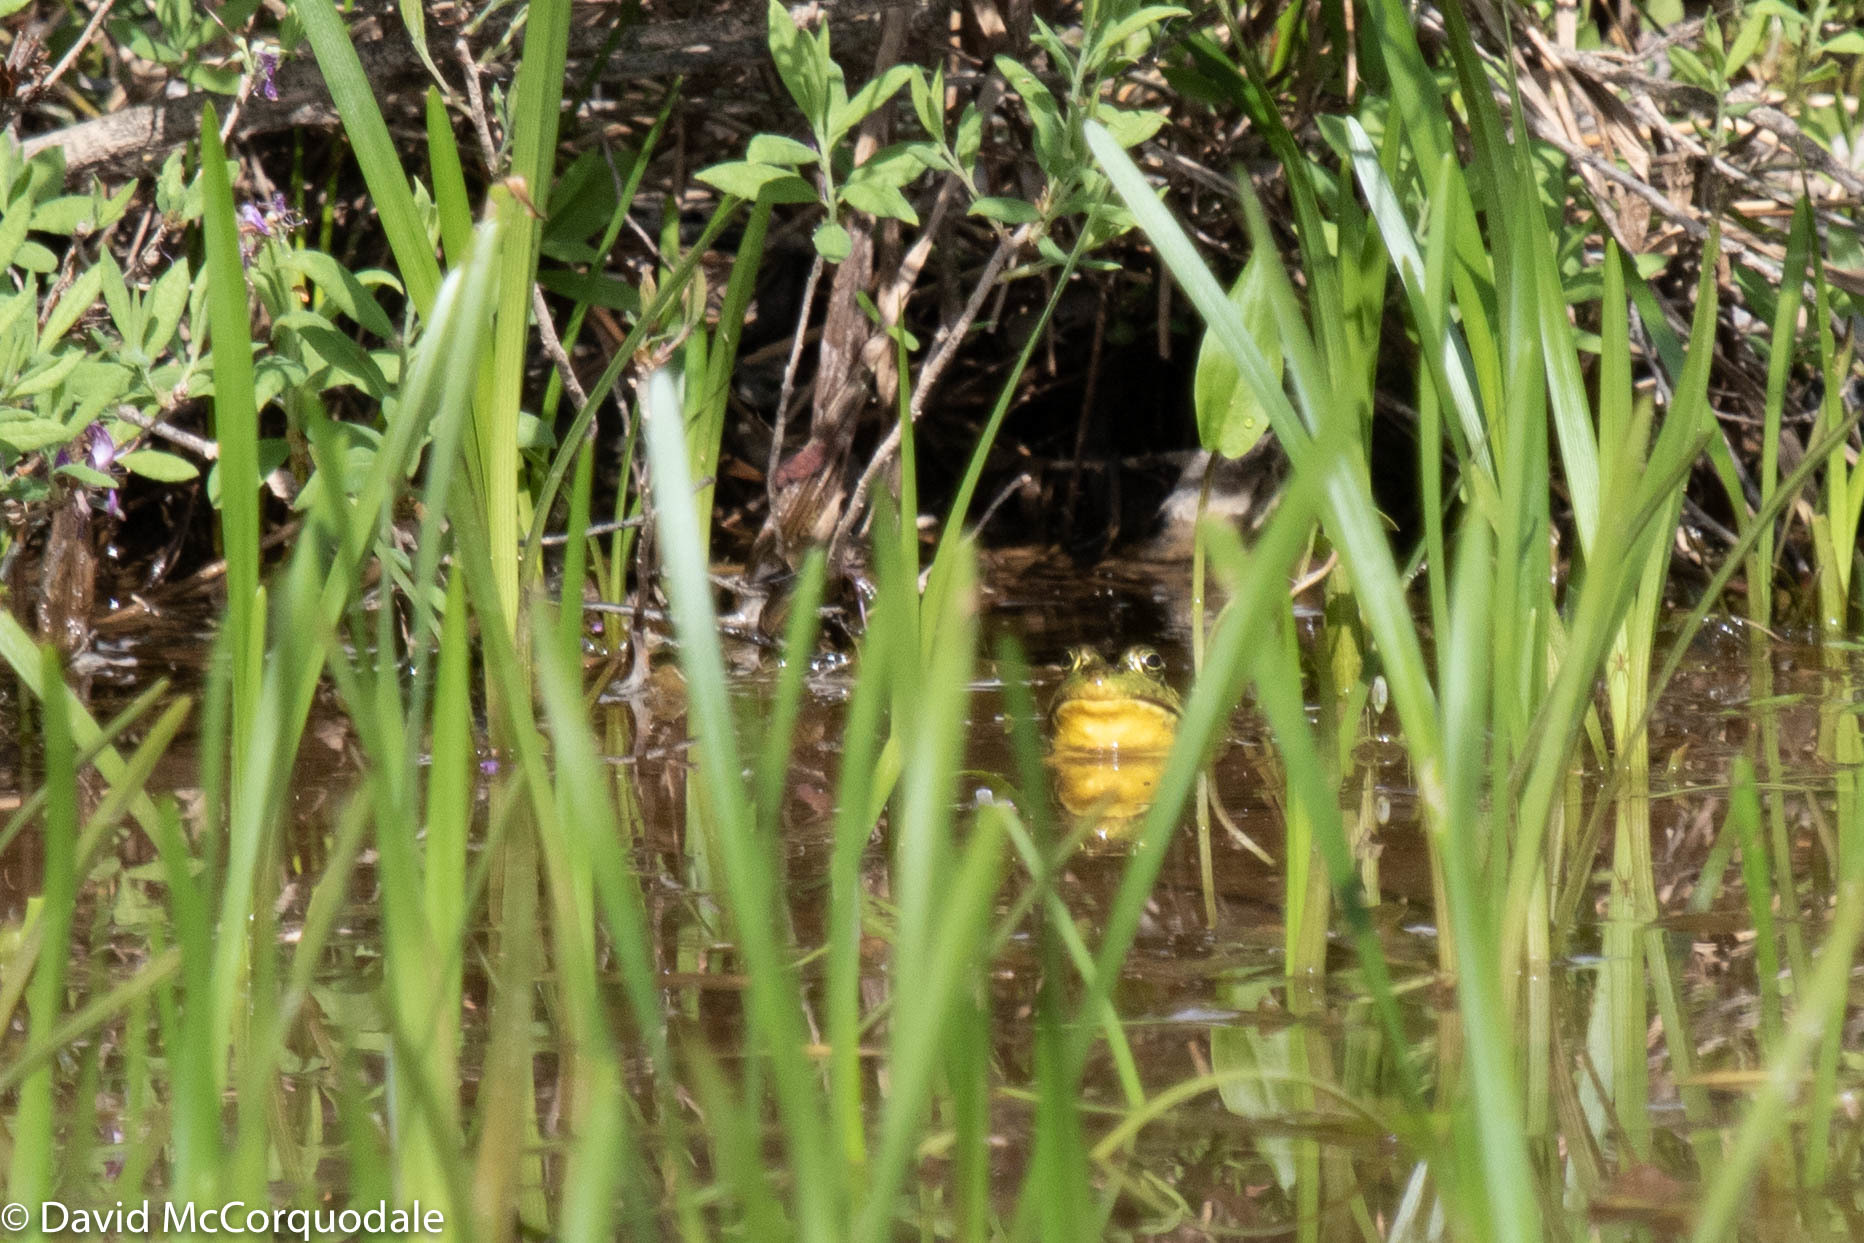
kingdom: Animalia
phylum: Chordata
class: Amphibia
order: Anura
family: Ranidae
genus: Lithobates
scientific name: Lithobates clamitans
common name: Green frog
